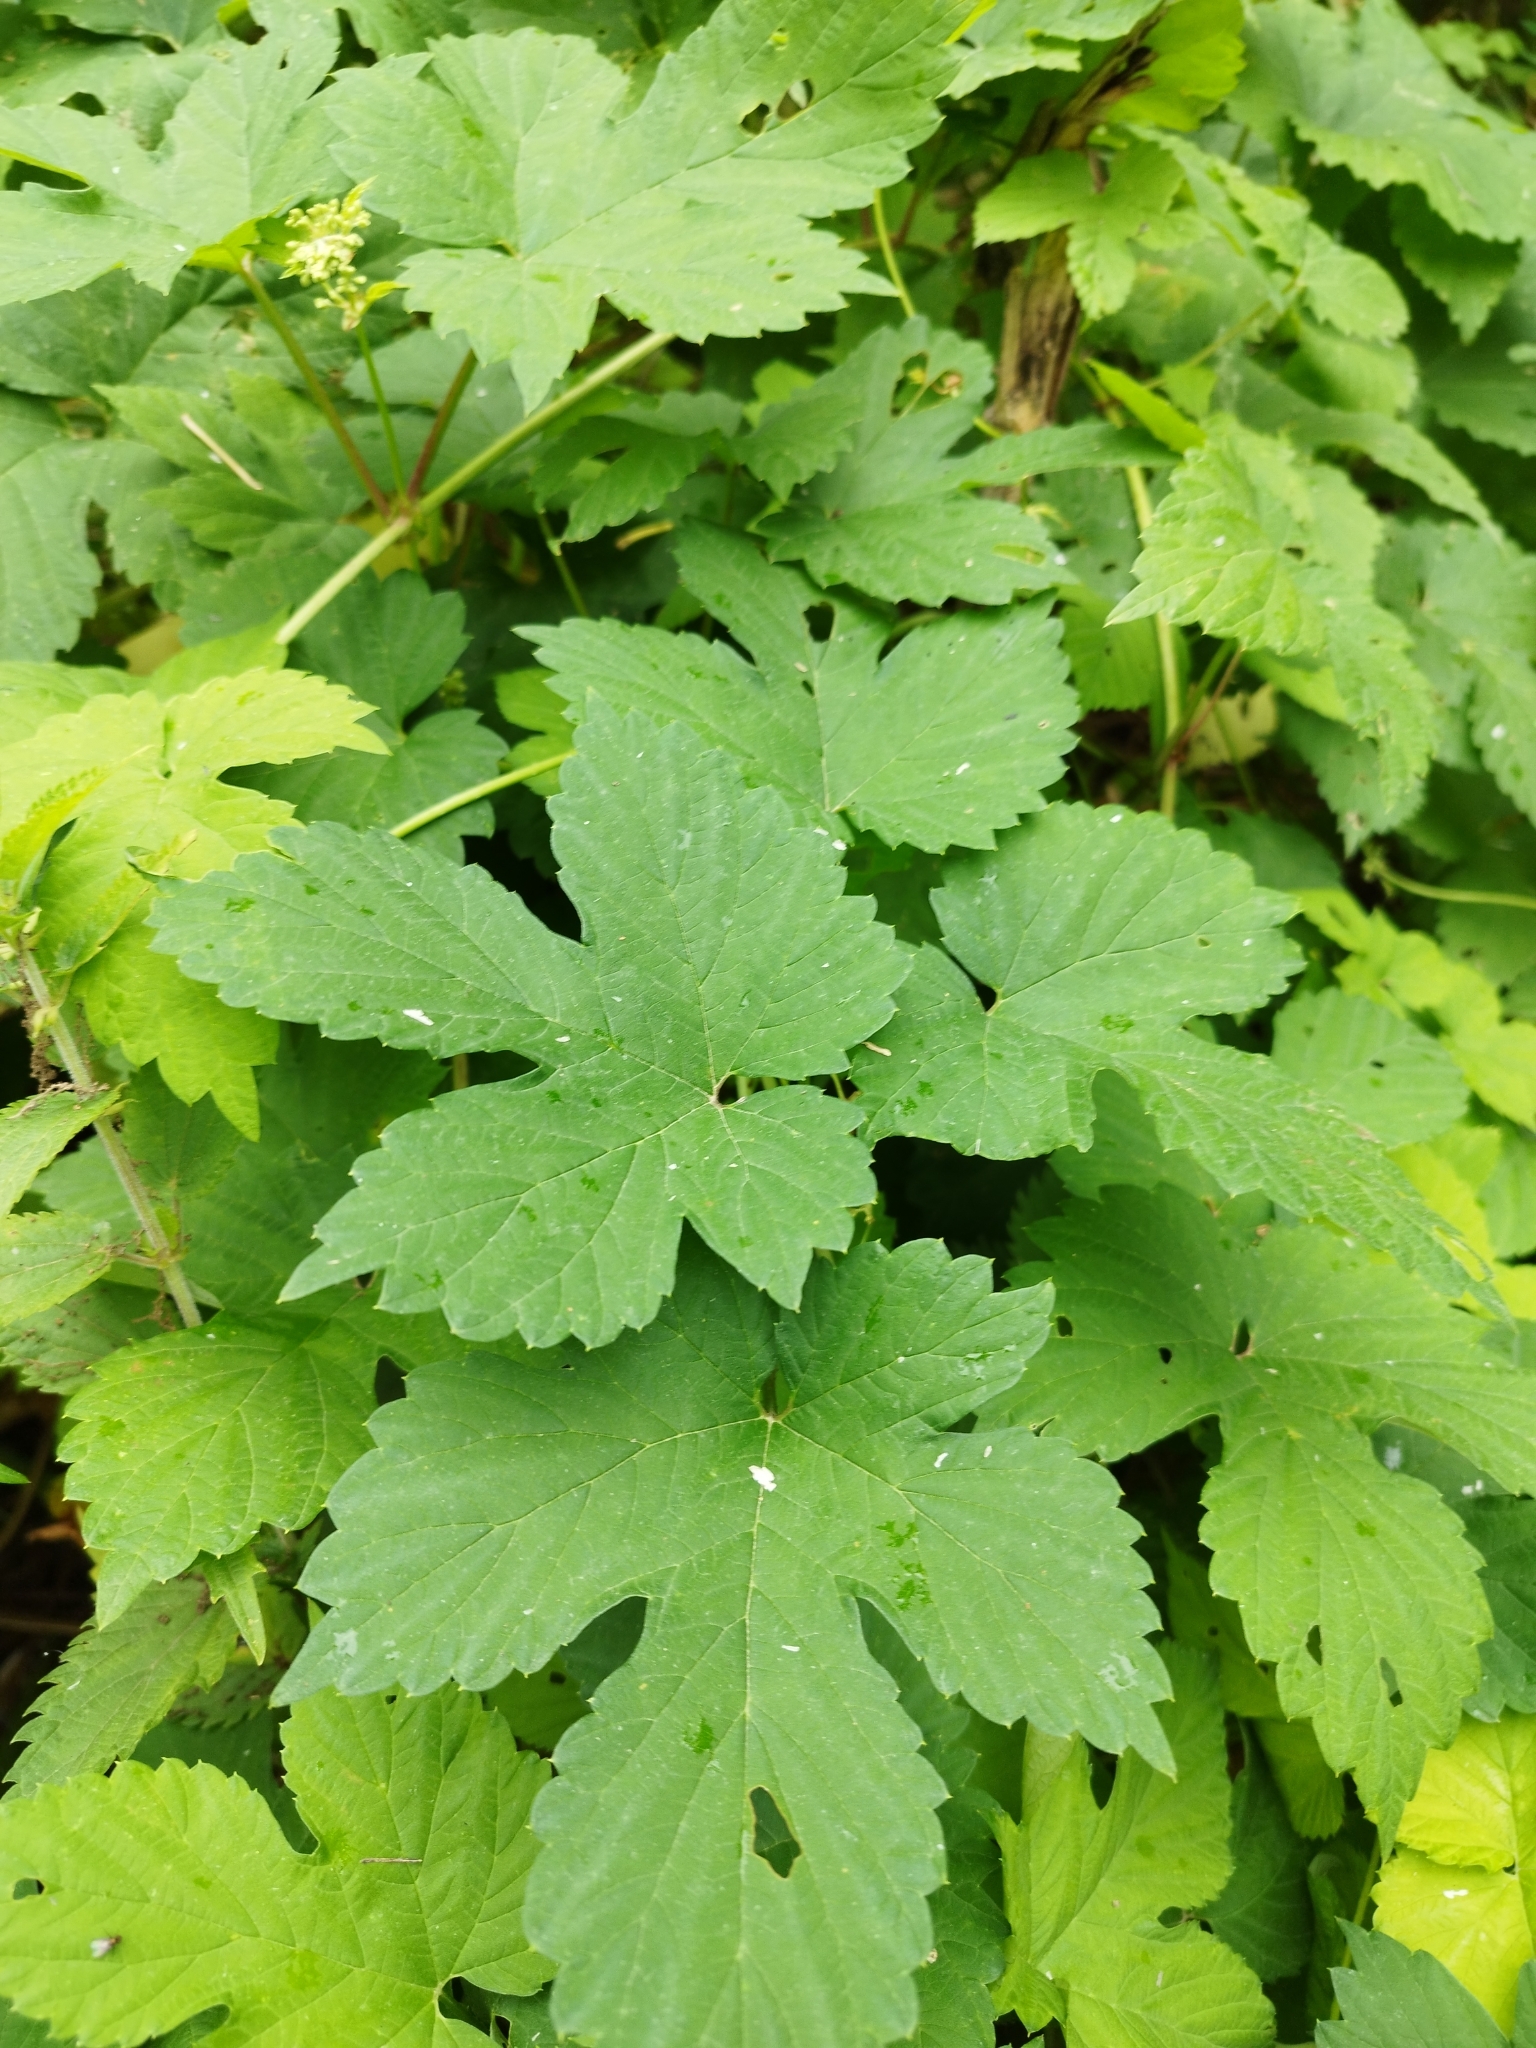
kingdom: Plantae
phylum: Tracheophyta
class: Magnoliopsida
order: Rosales
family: Cannabaceae
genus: Humulus
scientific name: Humulus lupulus
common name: Hop
